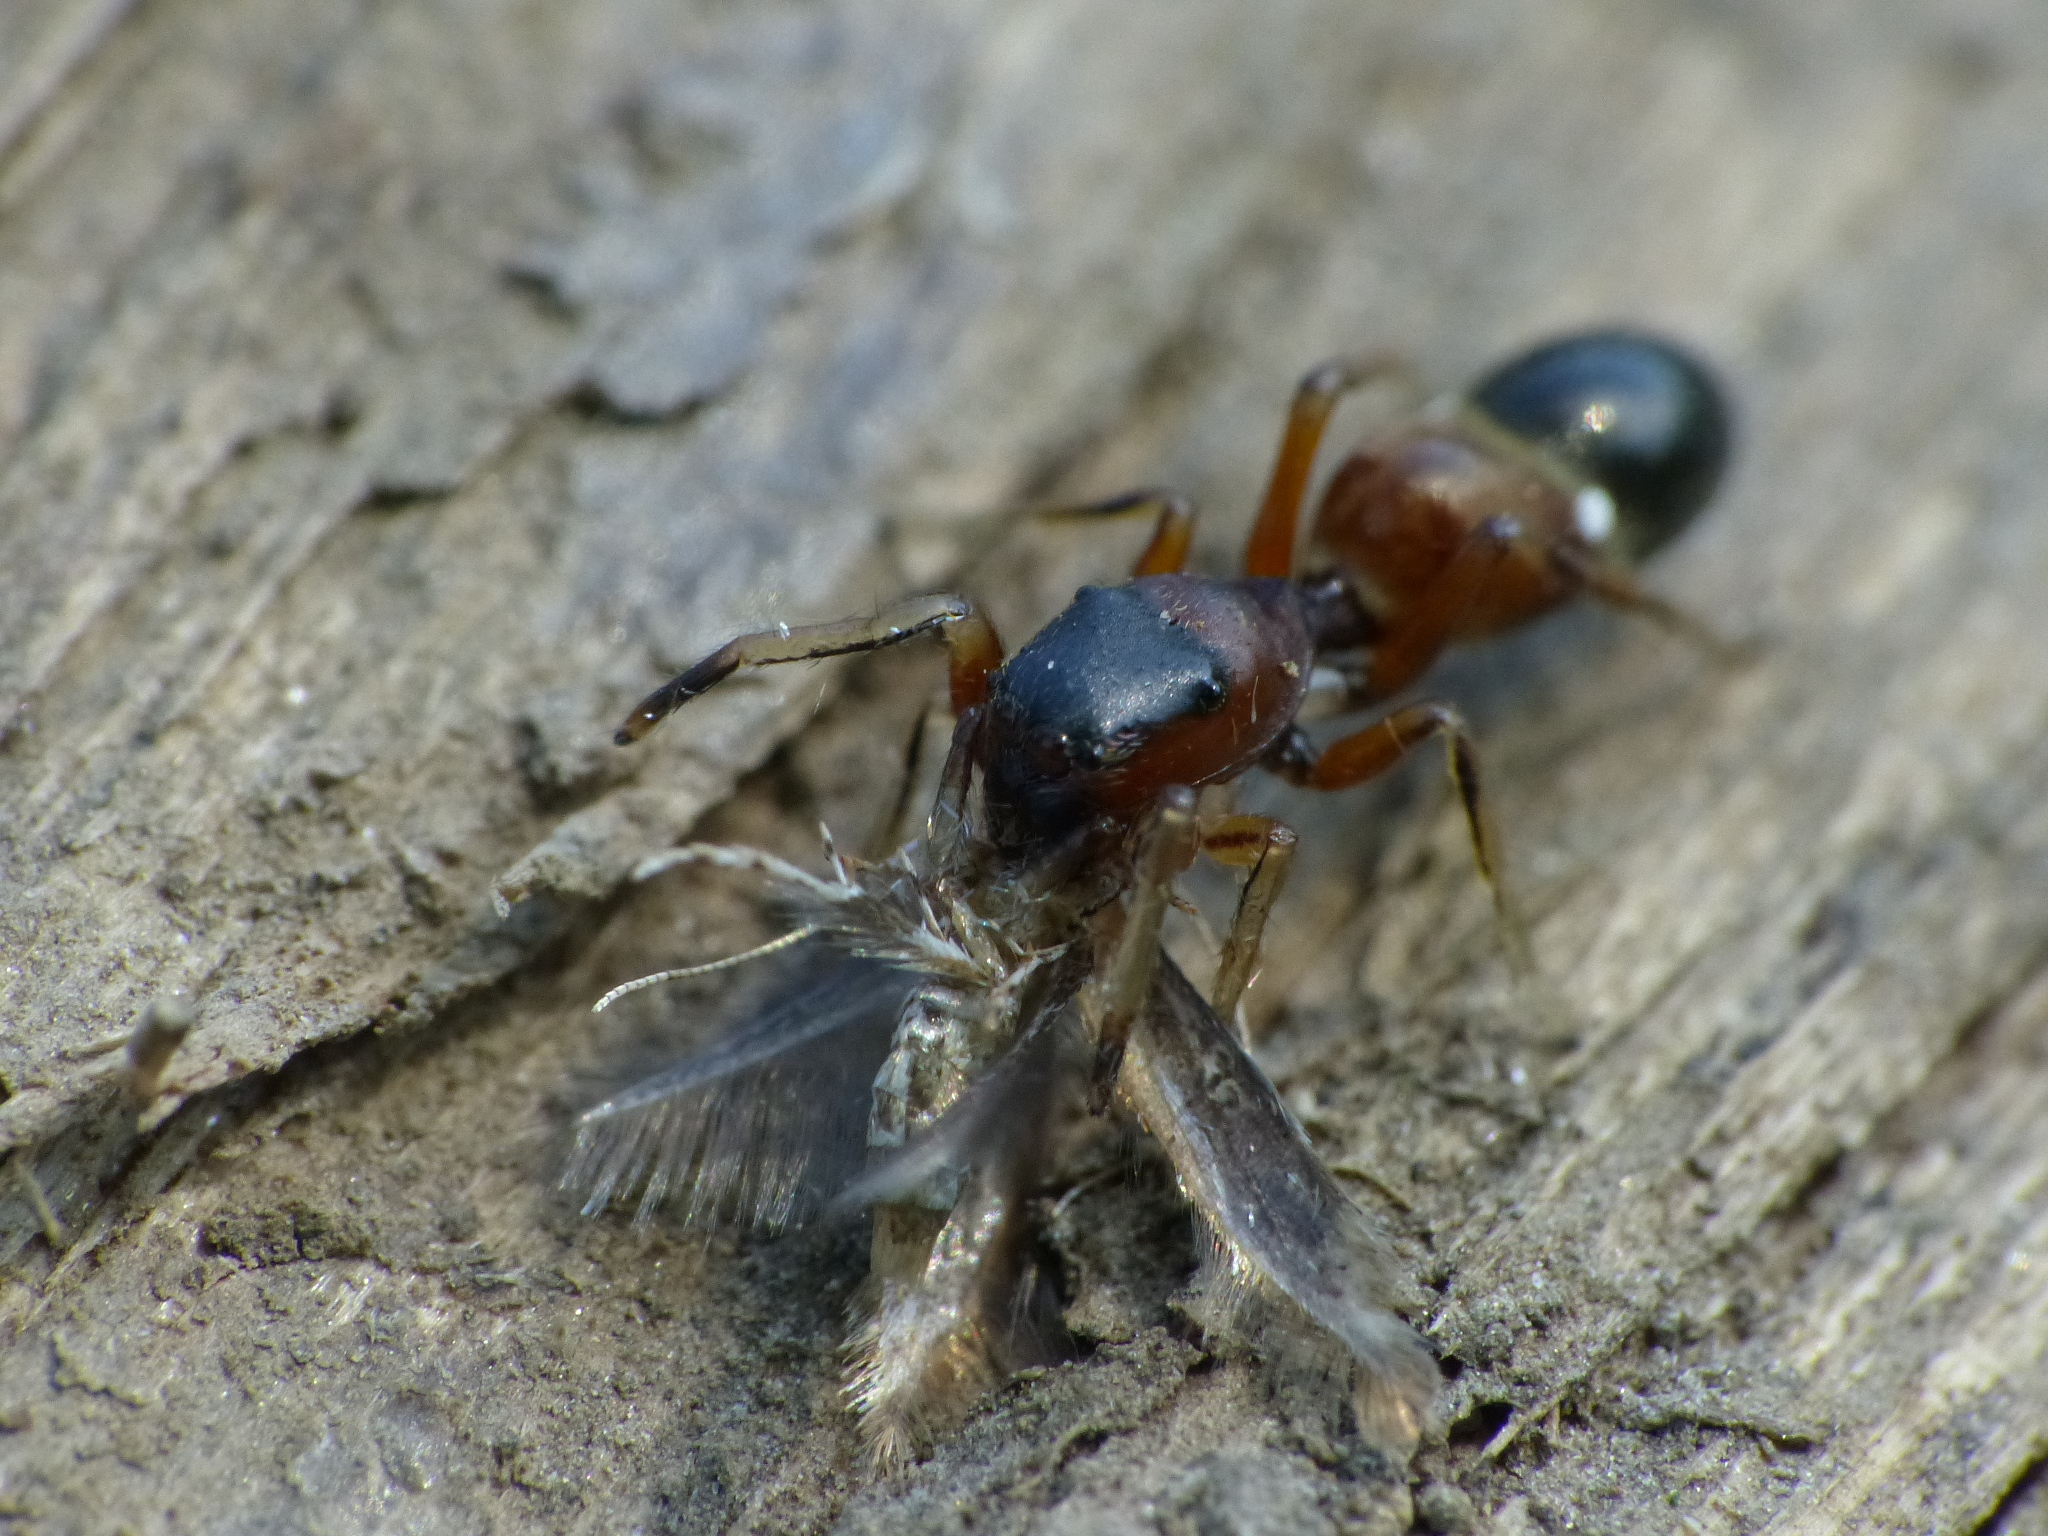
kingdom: Animalia
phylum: Arthropoda
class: Arachnida
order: Araneae
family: Salticidae
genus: Myrmarachne
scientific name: Myrmarachne formicaria
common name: Ant mimic jumping spider
